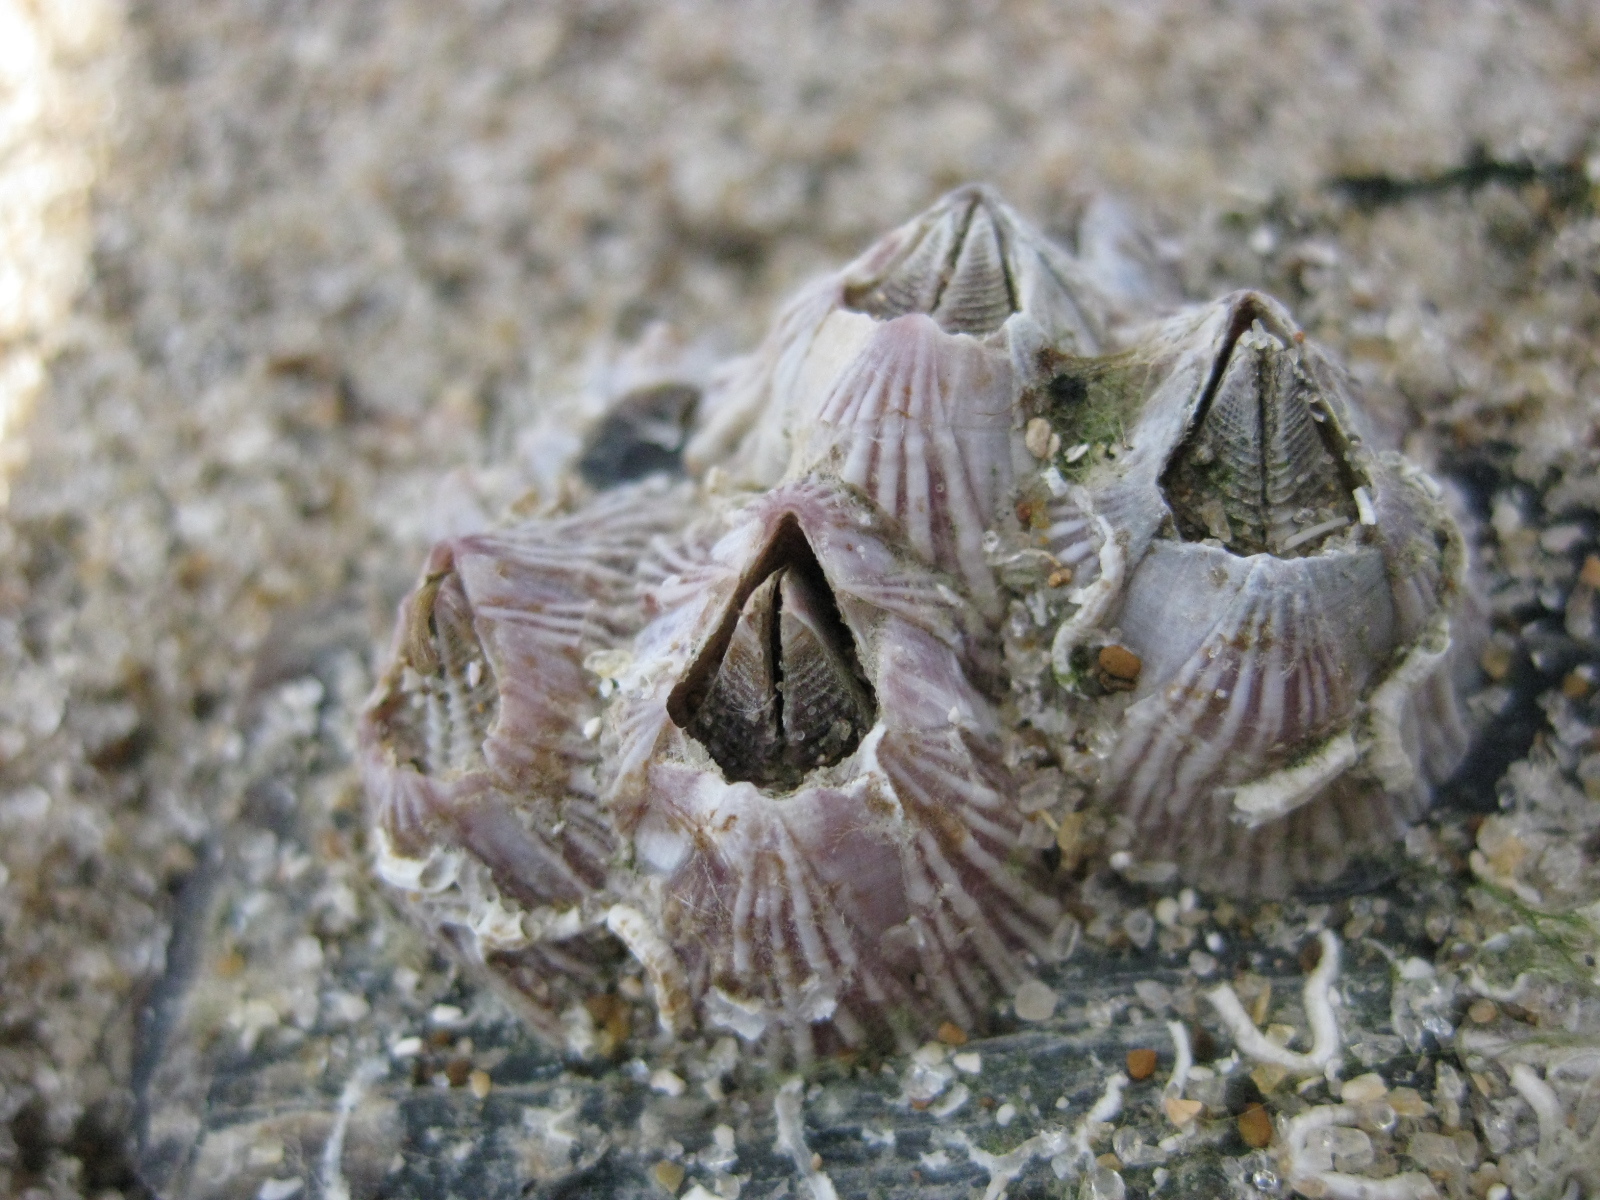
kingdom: Animalia
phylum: Arthropoda
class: Maxillopoda
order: Sessilia
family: Balanidae
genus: Balanus
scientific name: Balanus trigonus
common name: Triangle barnacle
